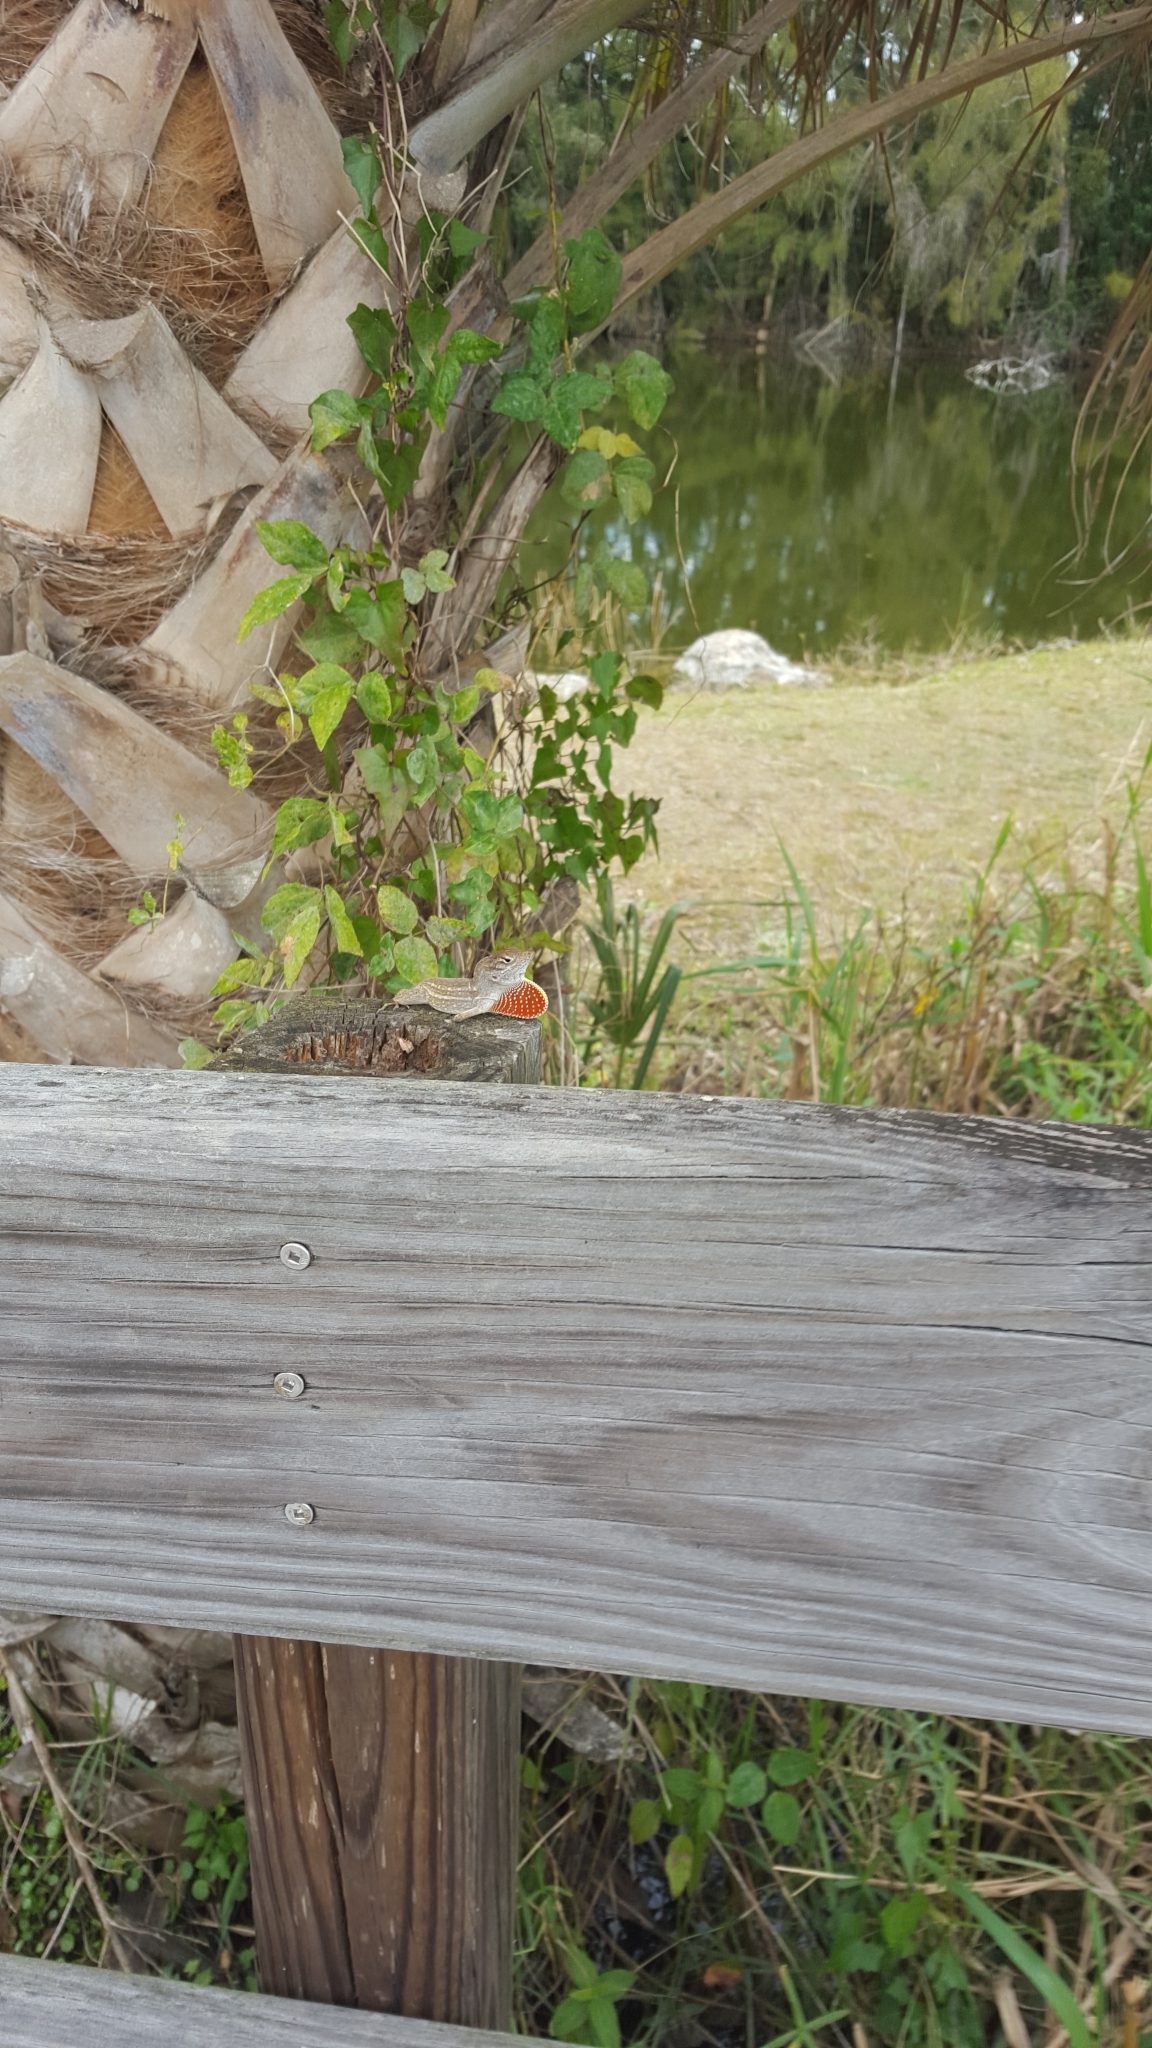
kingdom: Animalia
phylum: Chordata
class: Squamata
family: Dactyloidae
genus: Anolis
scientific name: Anolis sagrei
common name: Brown anole
